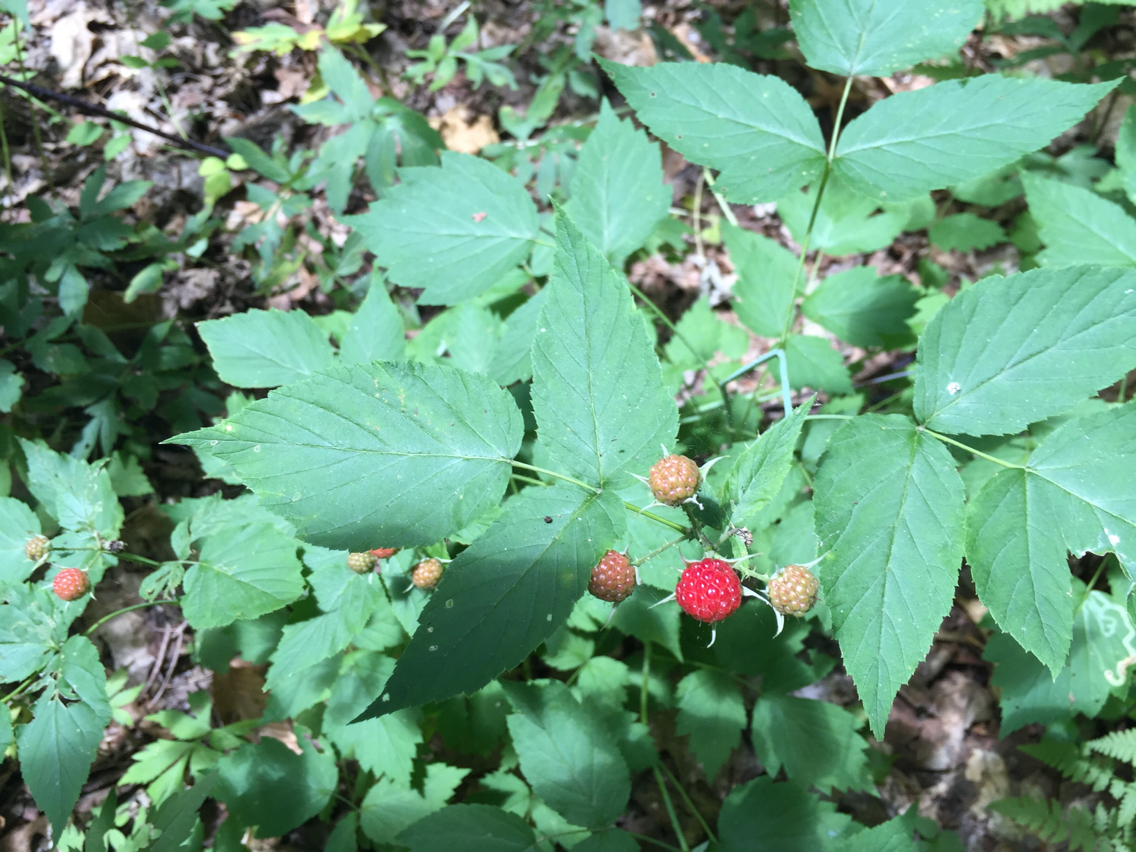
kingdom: Plantae
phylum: Tracheophyta
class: Magnoliopsida
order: Rosales
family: Rosaceae
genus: Rubus
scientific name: Rubus occidentalis
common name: Black raspberry
